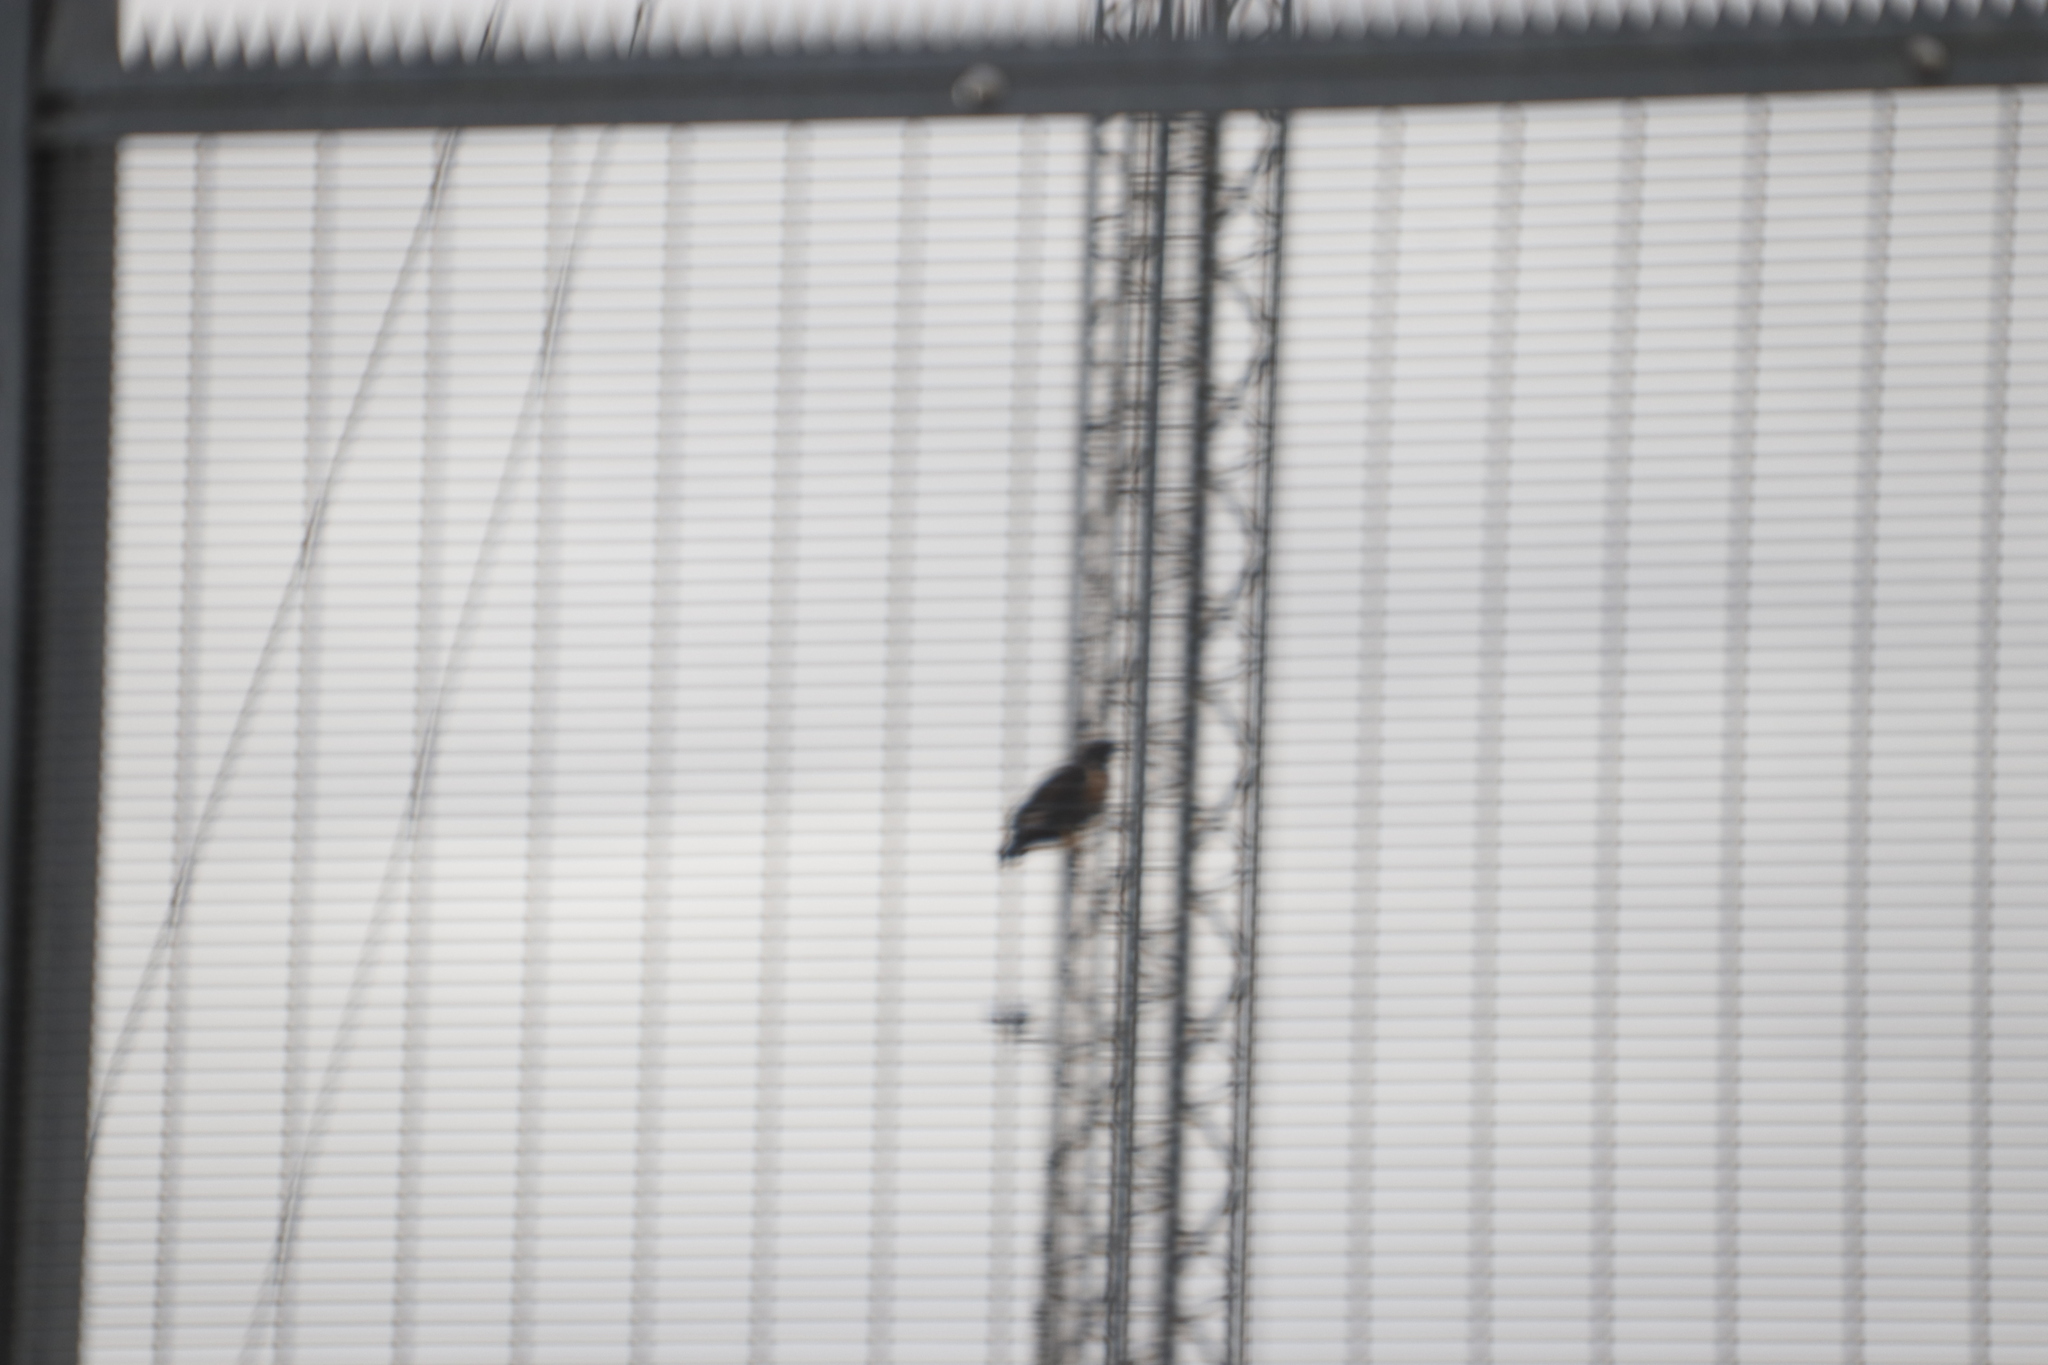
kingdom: Animalia
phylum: Chordata
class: Aves
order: Accipitriformes
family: Accipitridae
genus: Buteo
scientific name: Buteo rufofuscus
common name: Jackal buzzard
